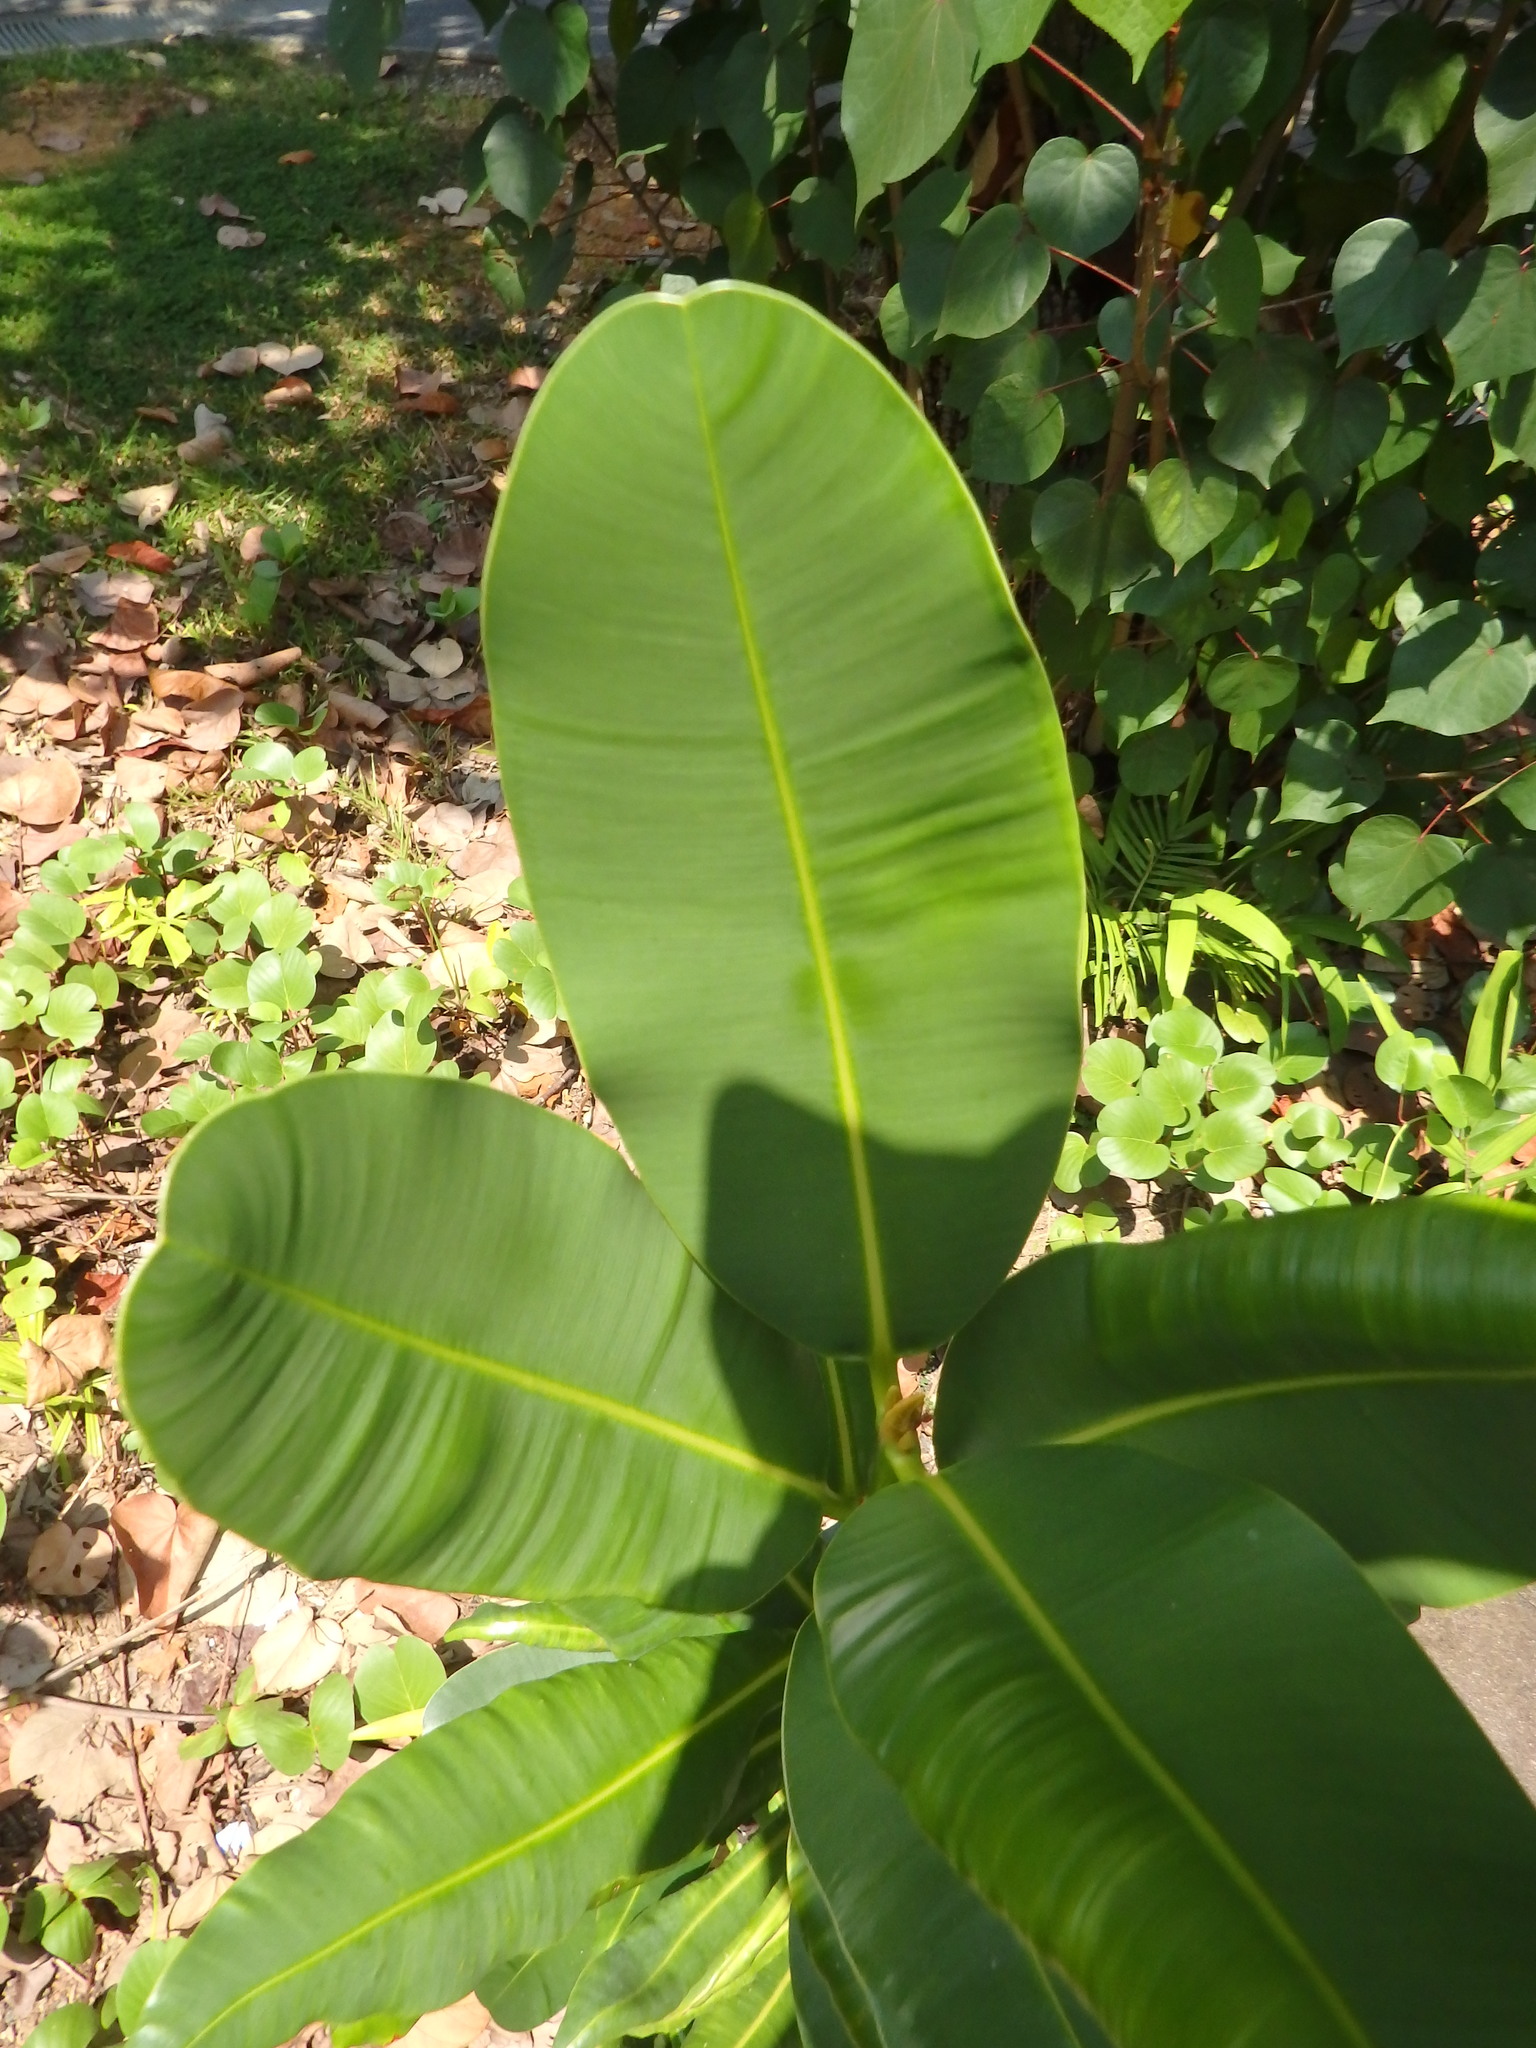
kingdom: Plantae
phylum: Tracheophyta
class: Magnoliopsida
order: Malpighiales
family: Calophyllaceae
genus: Calophyllum
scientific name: Calophyllum inophyllum
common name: Alexandrian laurel
